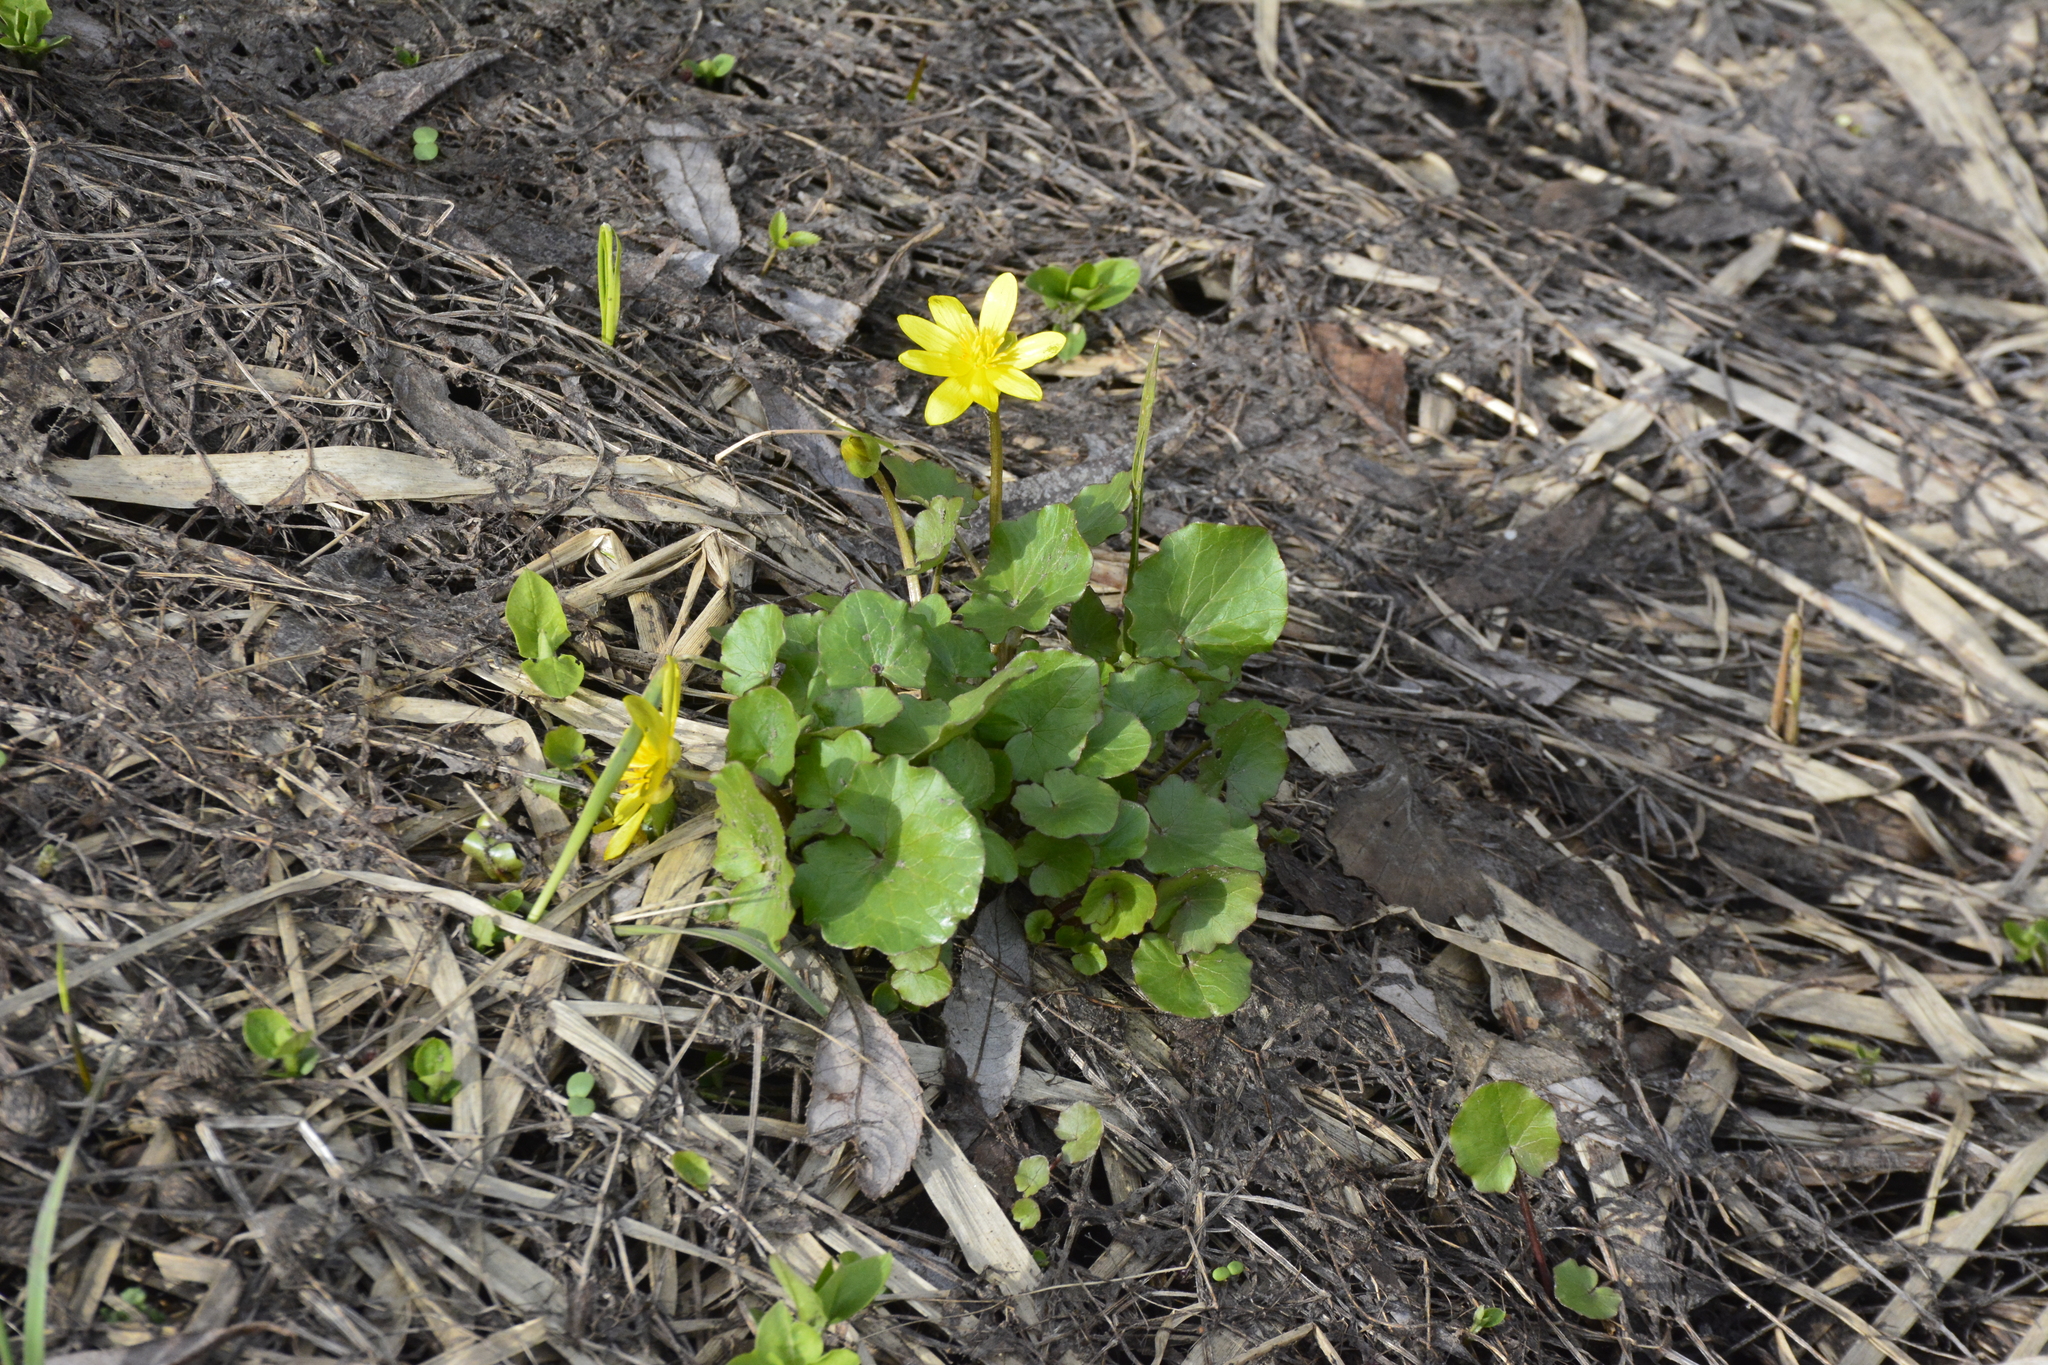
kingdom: Plantae
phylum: Tracheophyta
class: Magnoliopsida
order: Ranunculales
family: Ranunculaceae
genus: Ficaria
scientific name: Ficaria verna
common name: Lesser celandine
